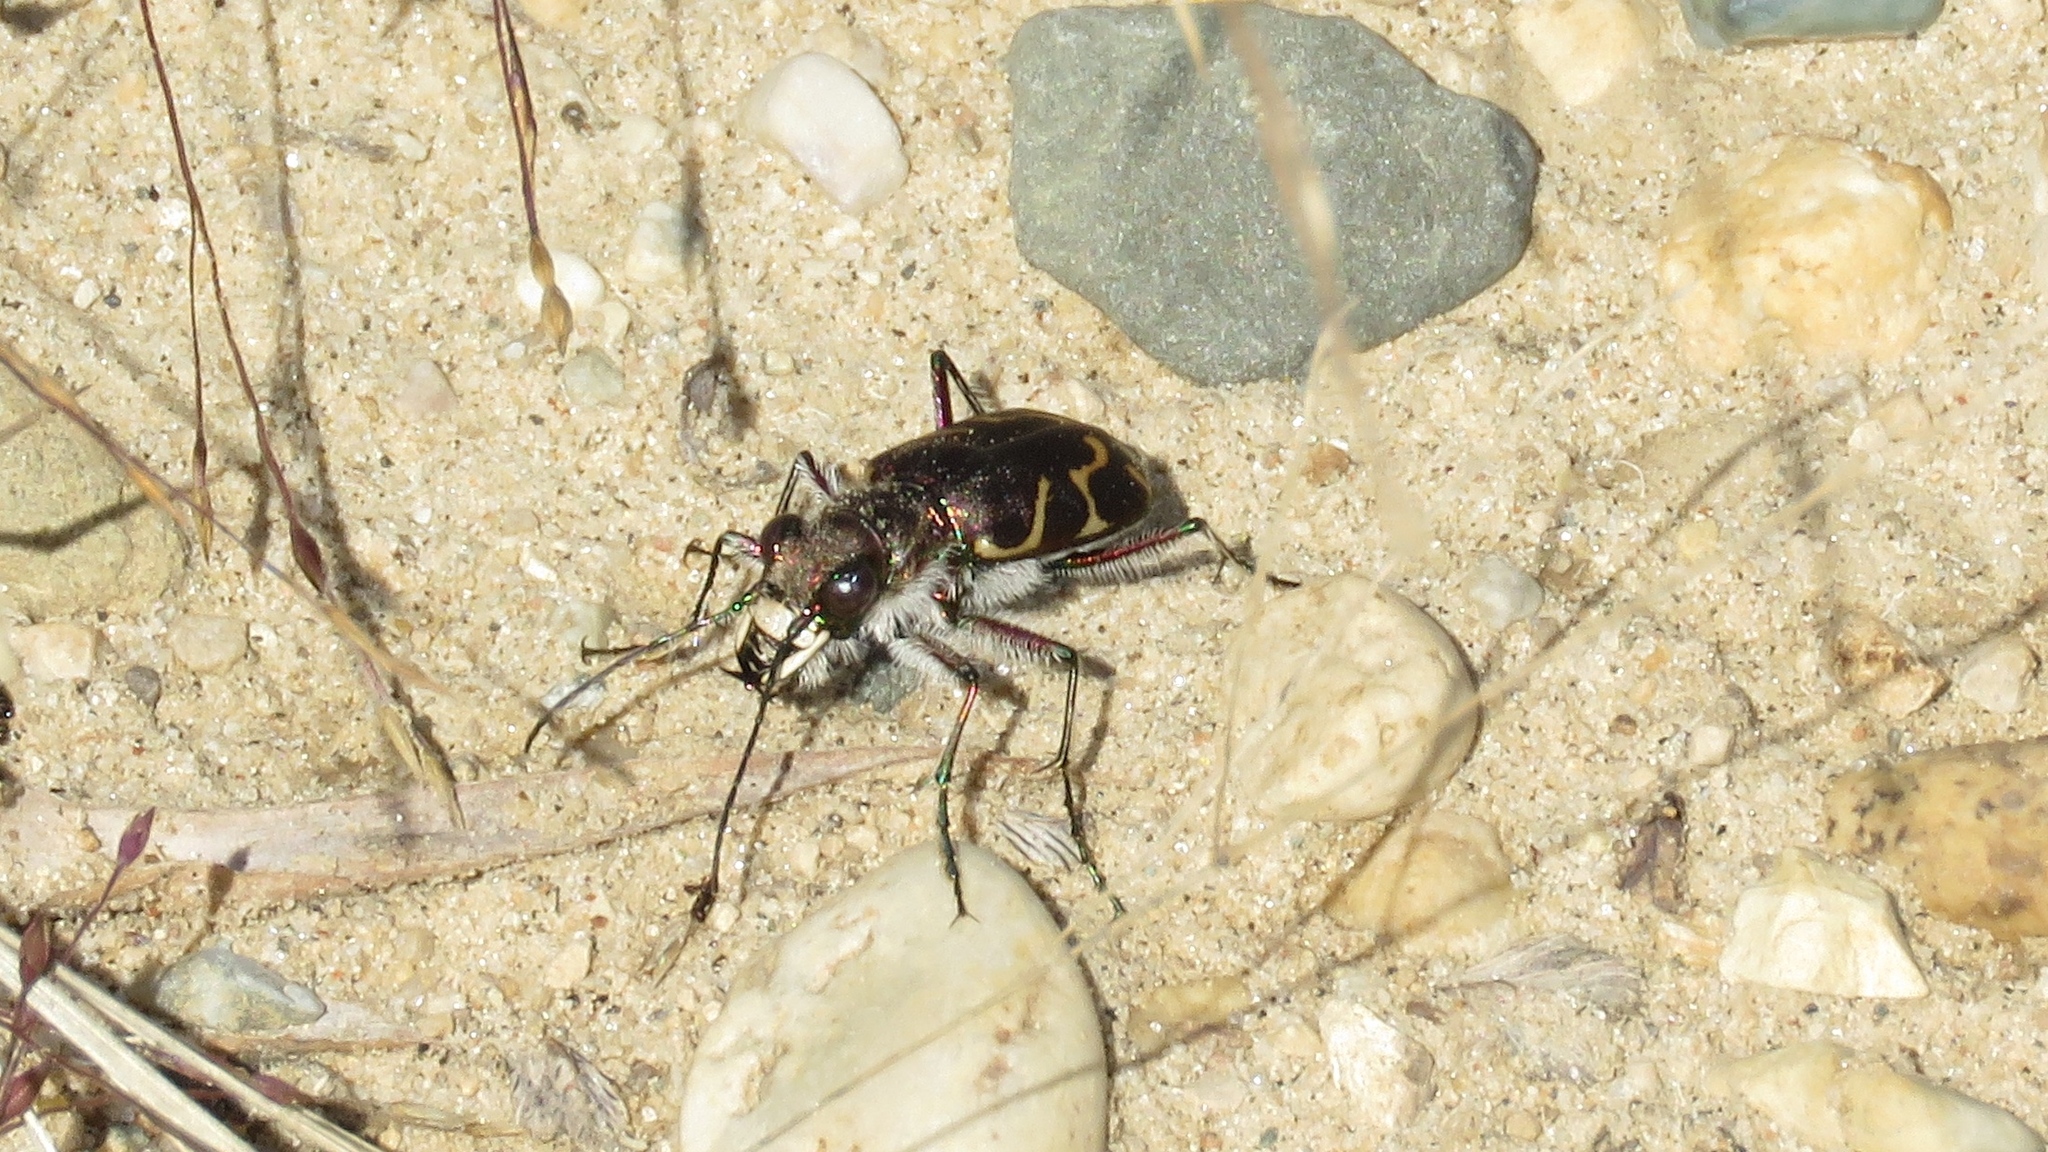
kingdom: Animalia
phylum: Arthropoda
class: Insecta
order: Coleoptera
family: Carabidae
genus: Cicindela
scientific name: Cicindela tranquebarica
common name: Oblique-lined tiger beetle
